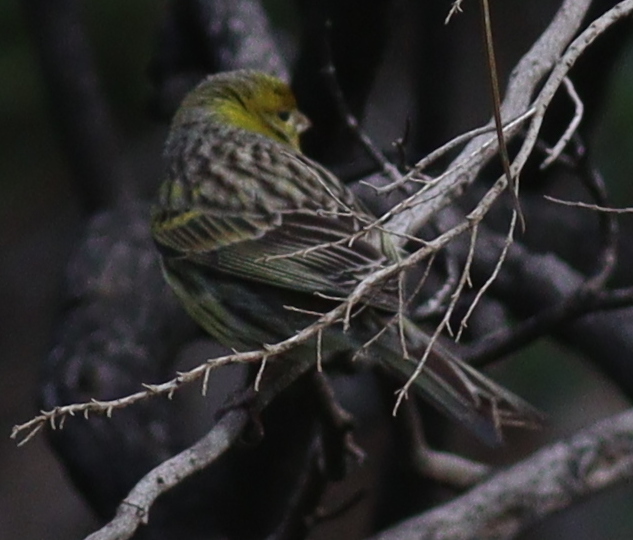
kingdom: Animalia
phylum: Chordata
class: Aves
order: Passeriformes
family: Fringillidae
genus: Serinus
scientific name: Serinus canaria
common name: Atlantic canary
